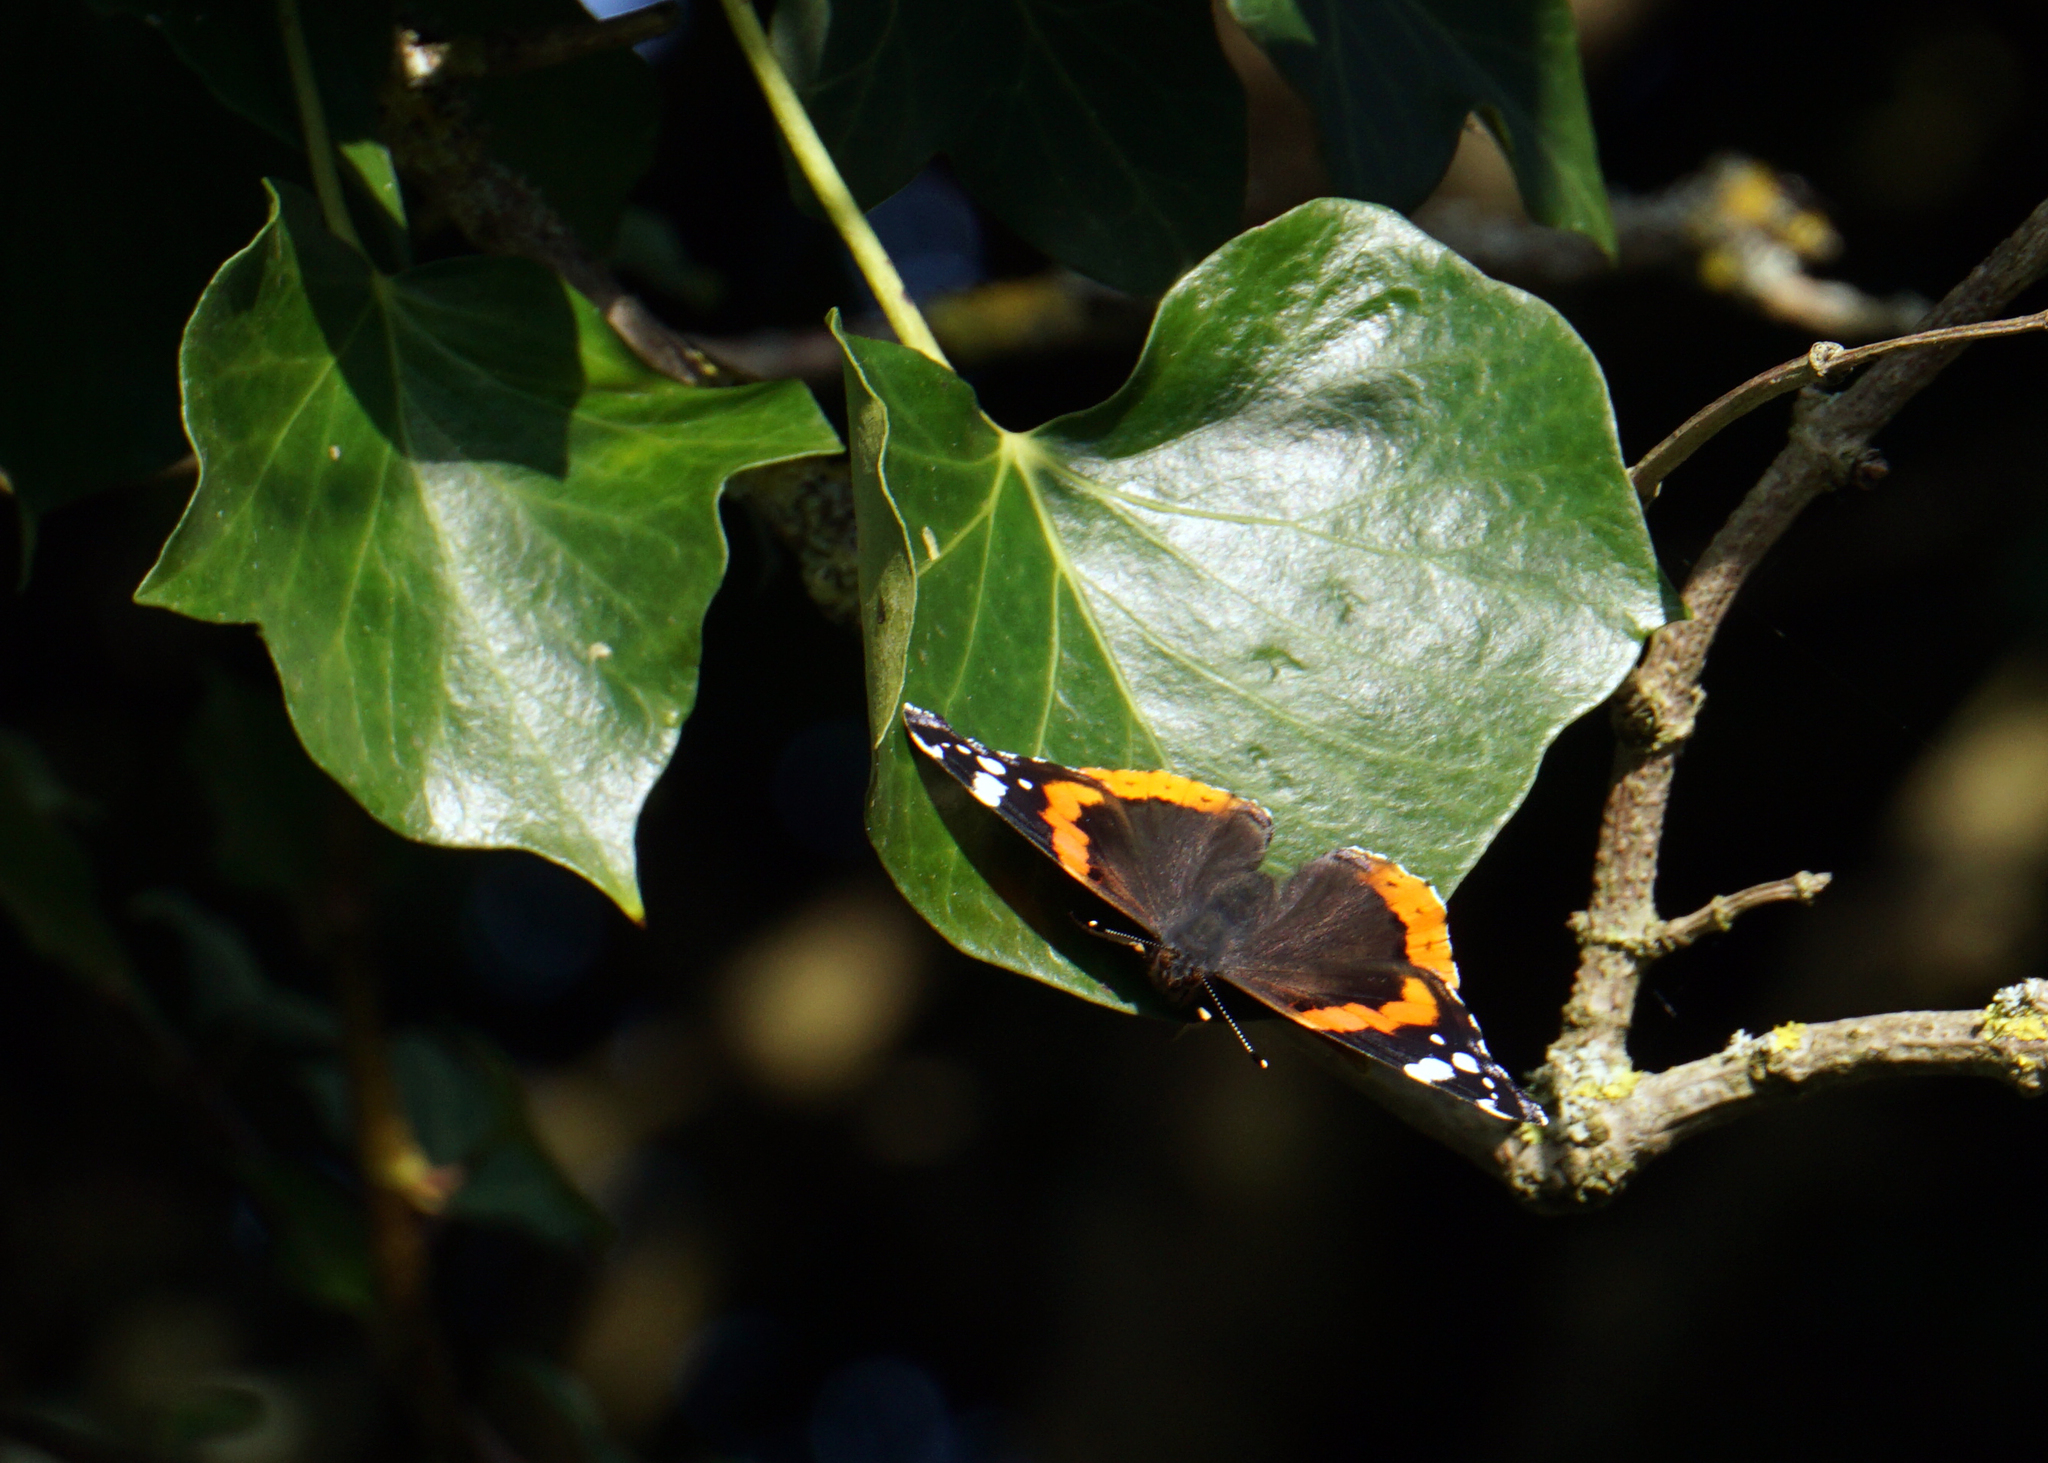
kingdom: Animalia
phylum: Arthropoda
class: Insecta
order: Lepidoptera
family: Nymphalidae
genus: Vanessa
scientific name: Vanessa atalanta
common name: Red admiral
